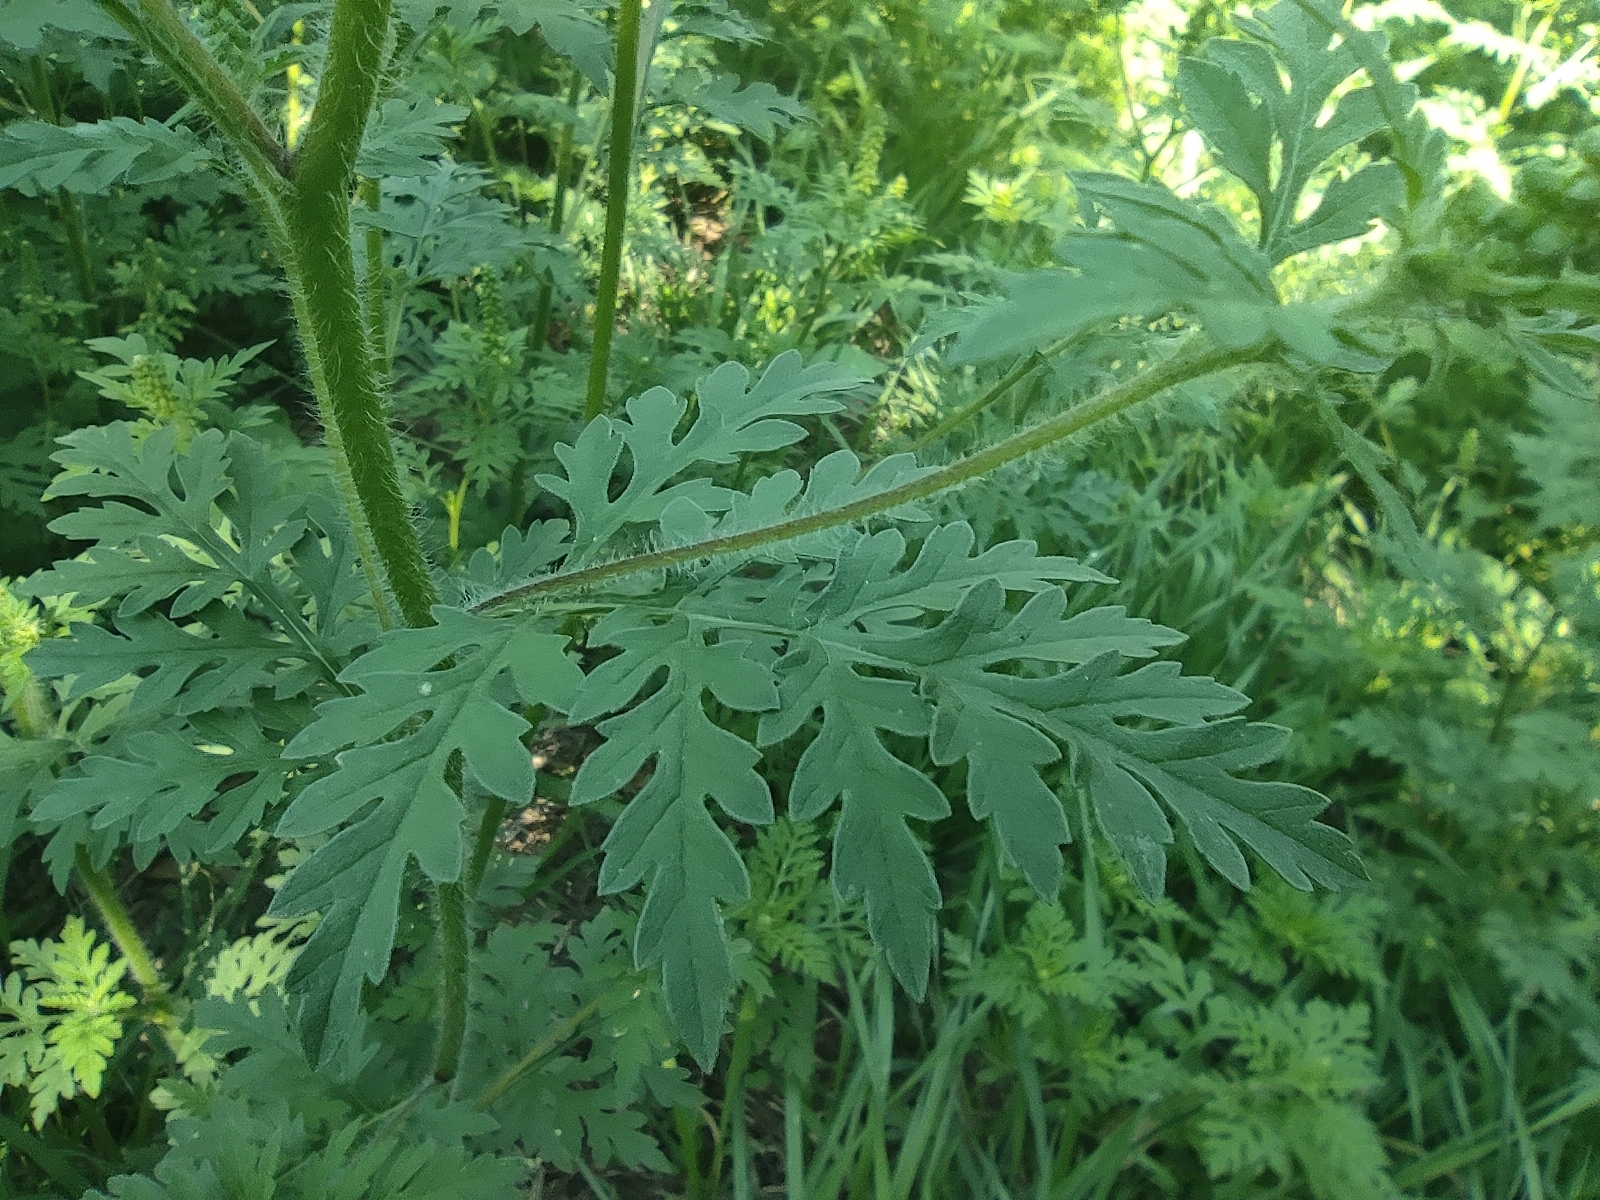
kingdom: Plantae
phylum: Tracheophyta
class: Magnoliopsida
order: Asterales
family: Asteraceae
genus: Ambrosia
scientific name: Ambrosia artemisiifolia
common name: Annual ragweed
